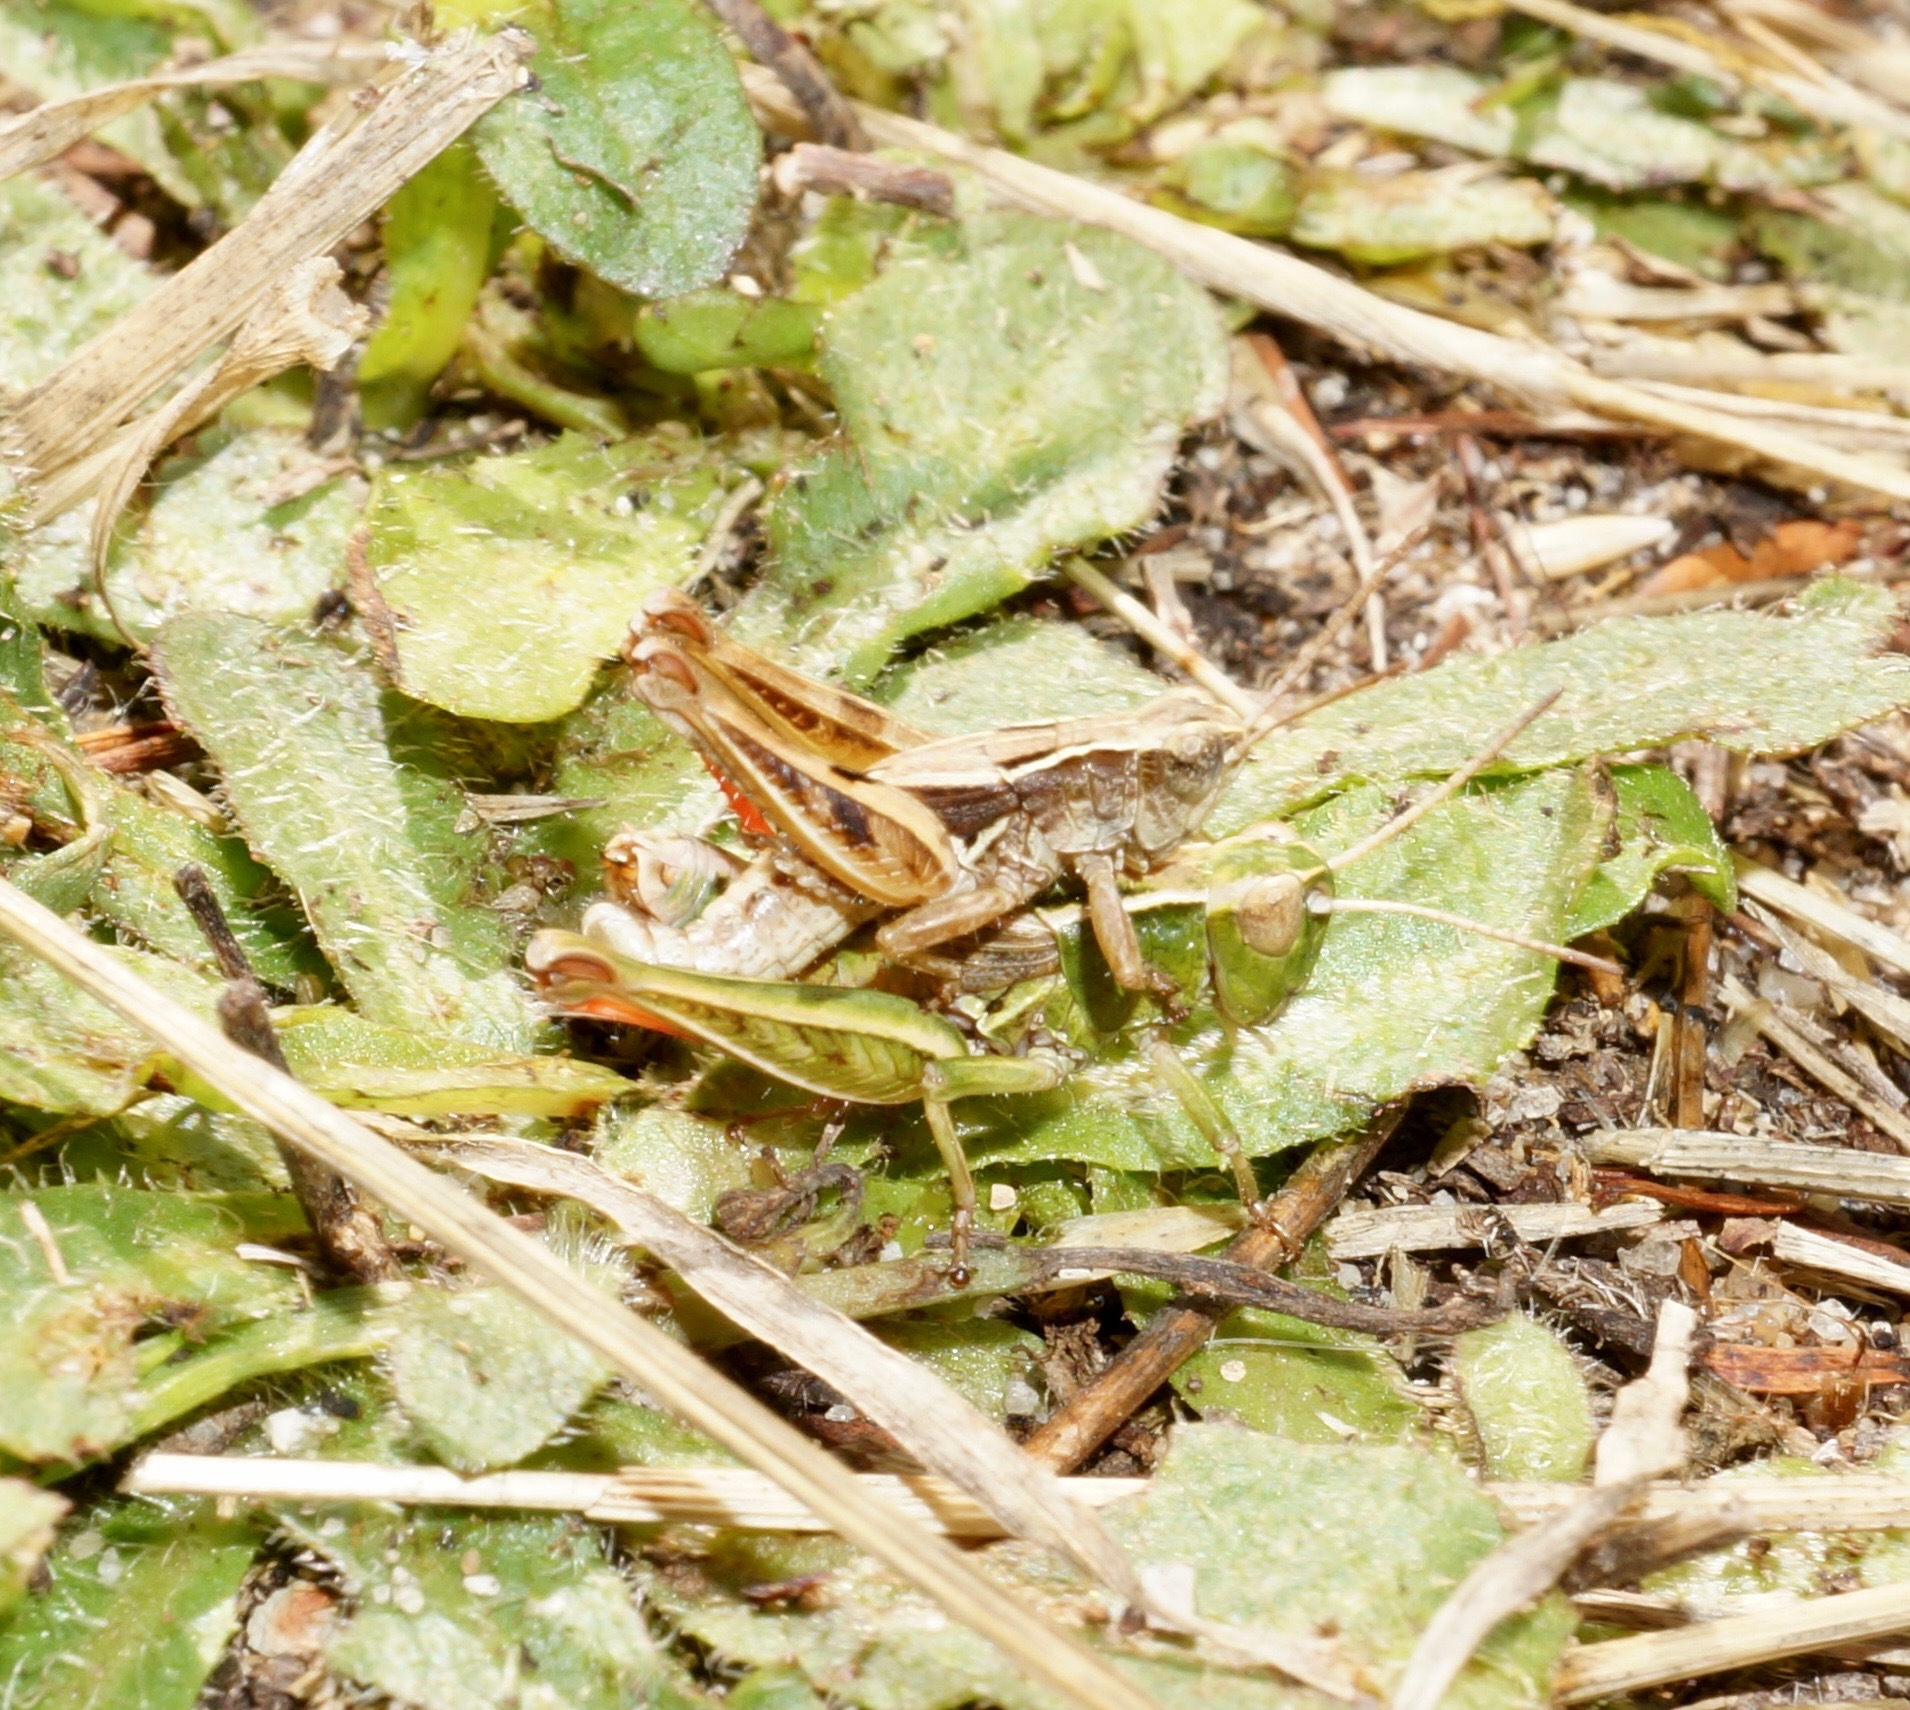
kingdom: Animalia
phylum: Arthropoda
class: Insecta
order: Orthoptera
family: Acrididae
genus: Phaulacridium
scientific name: Phaulacridium marginale
